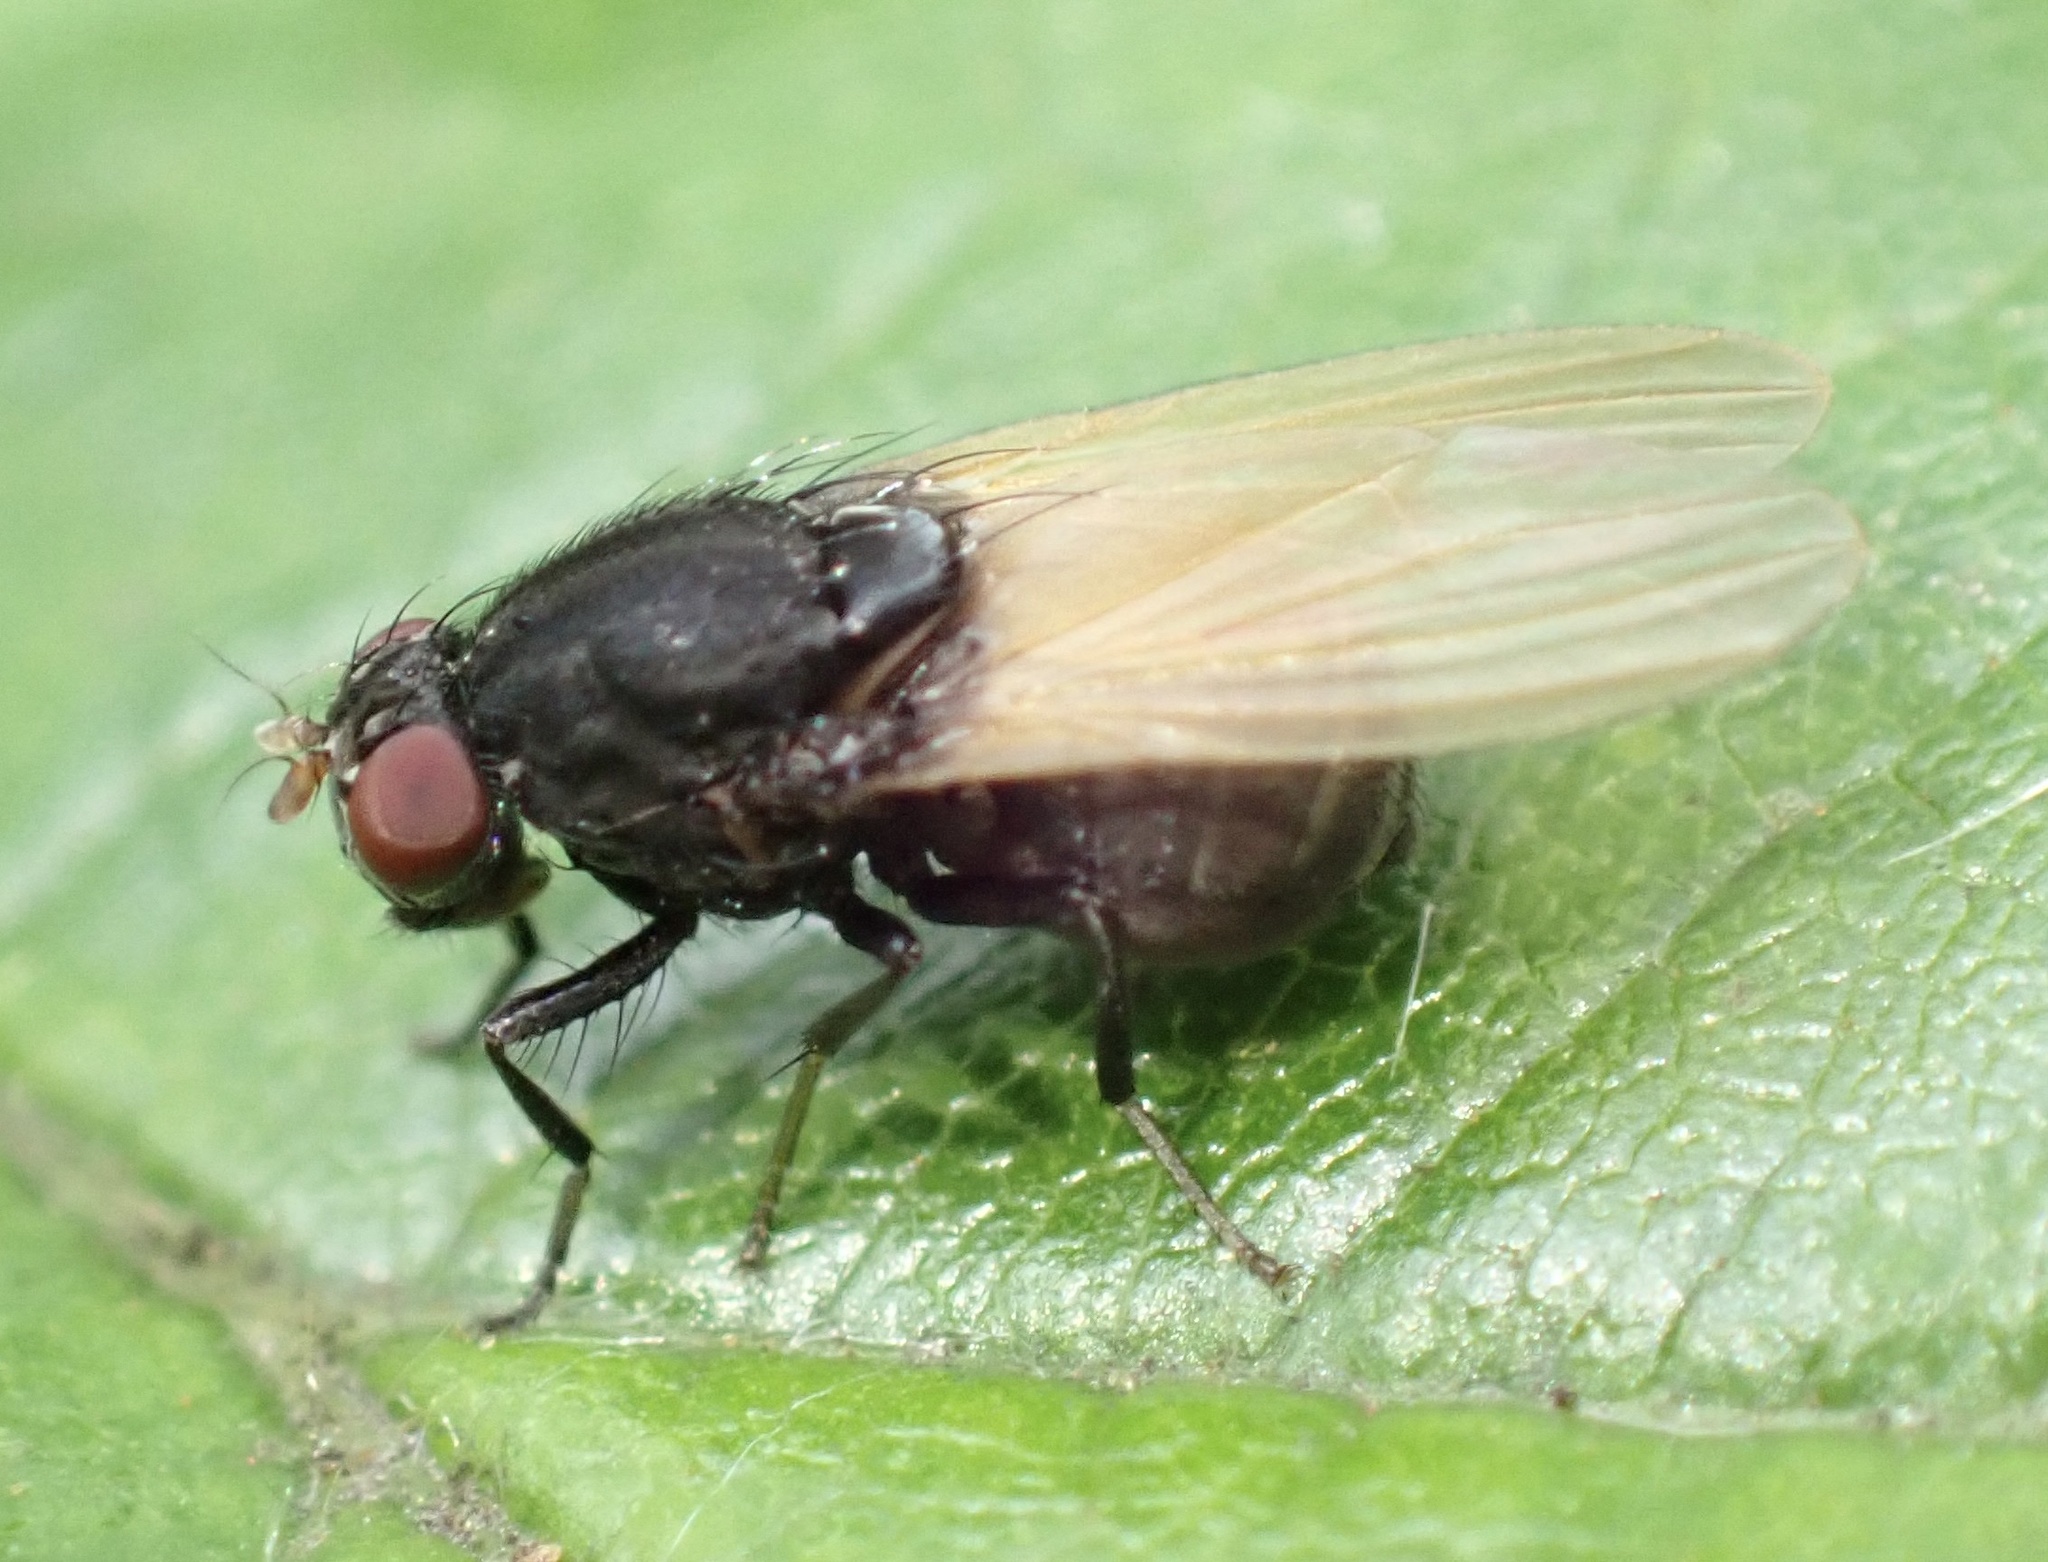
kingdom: Animalia
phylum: Arthropoda
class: Insecta
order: Diptera
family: Lauxaniidae
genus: Minettia
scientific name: Minettia longipennis
